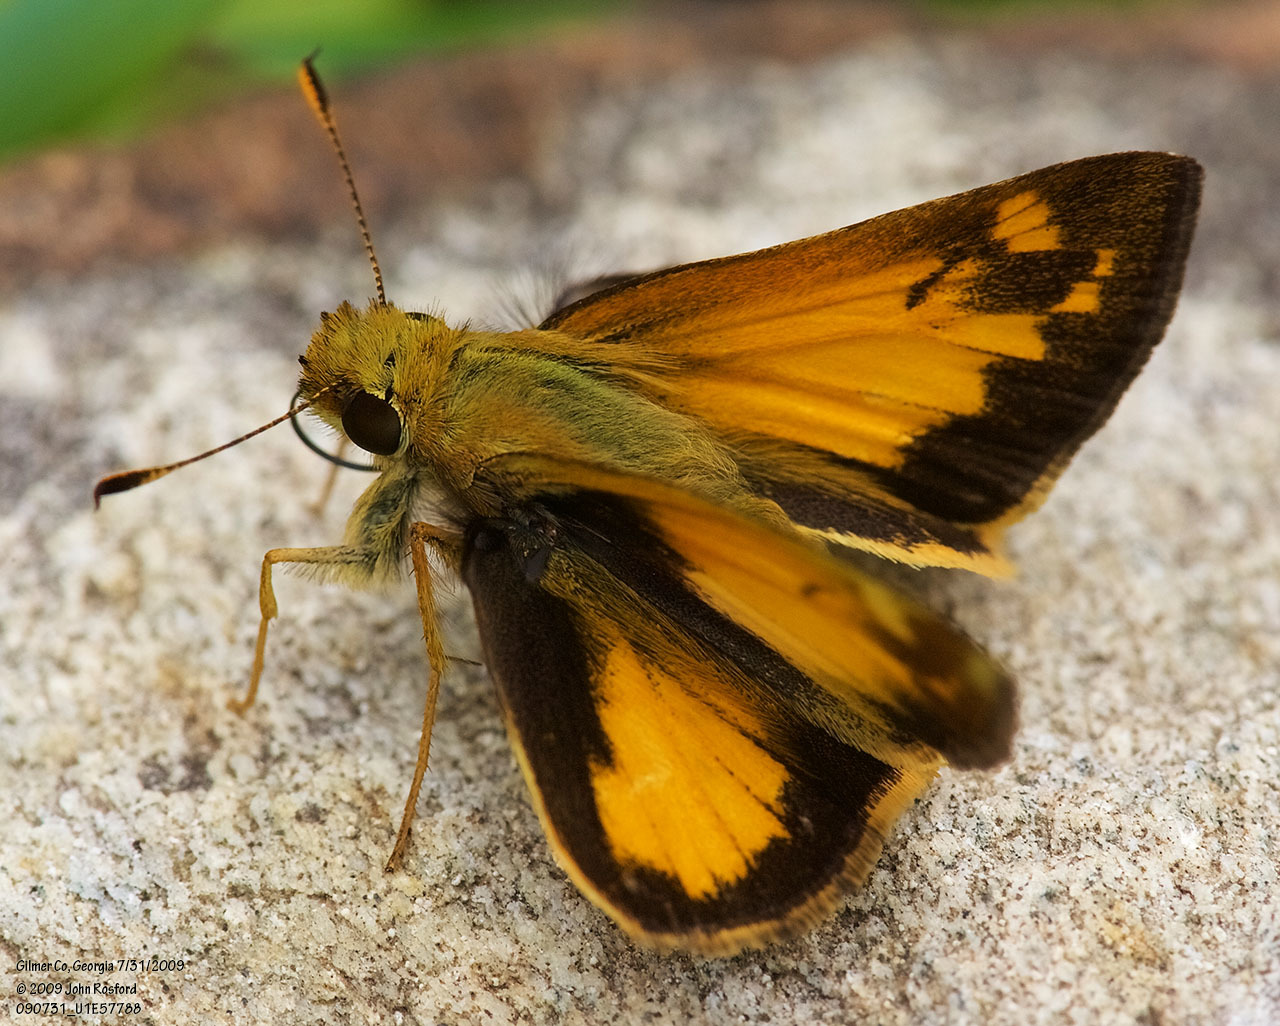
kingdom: Animalia
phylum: Arthropoda
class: Insecta
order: Lepidoptera
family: Hesperiidae
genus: Lon
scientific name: Lon zabulon
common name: Zabulon skipper
